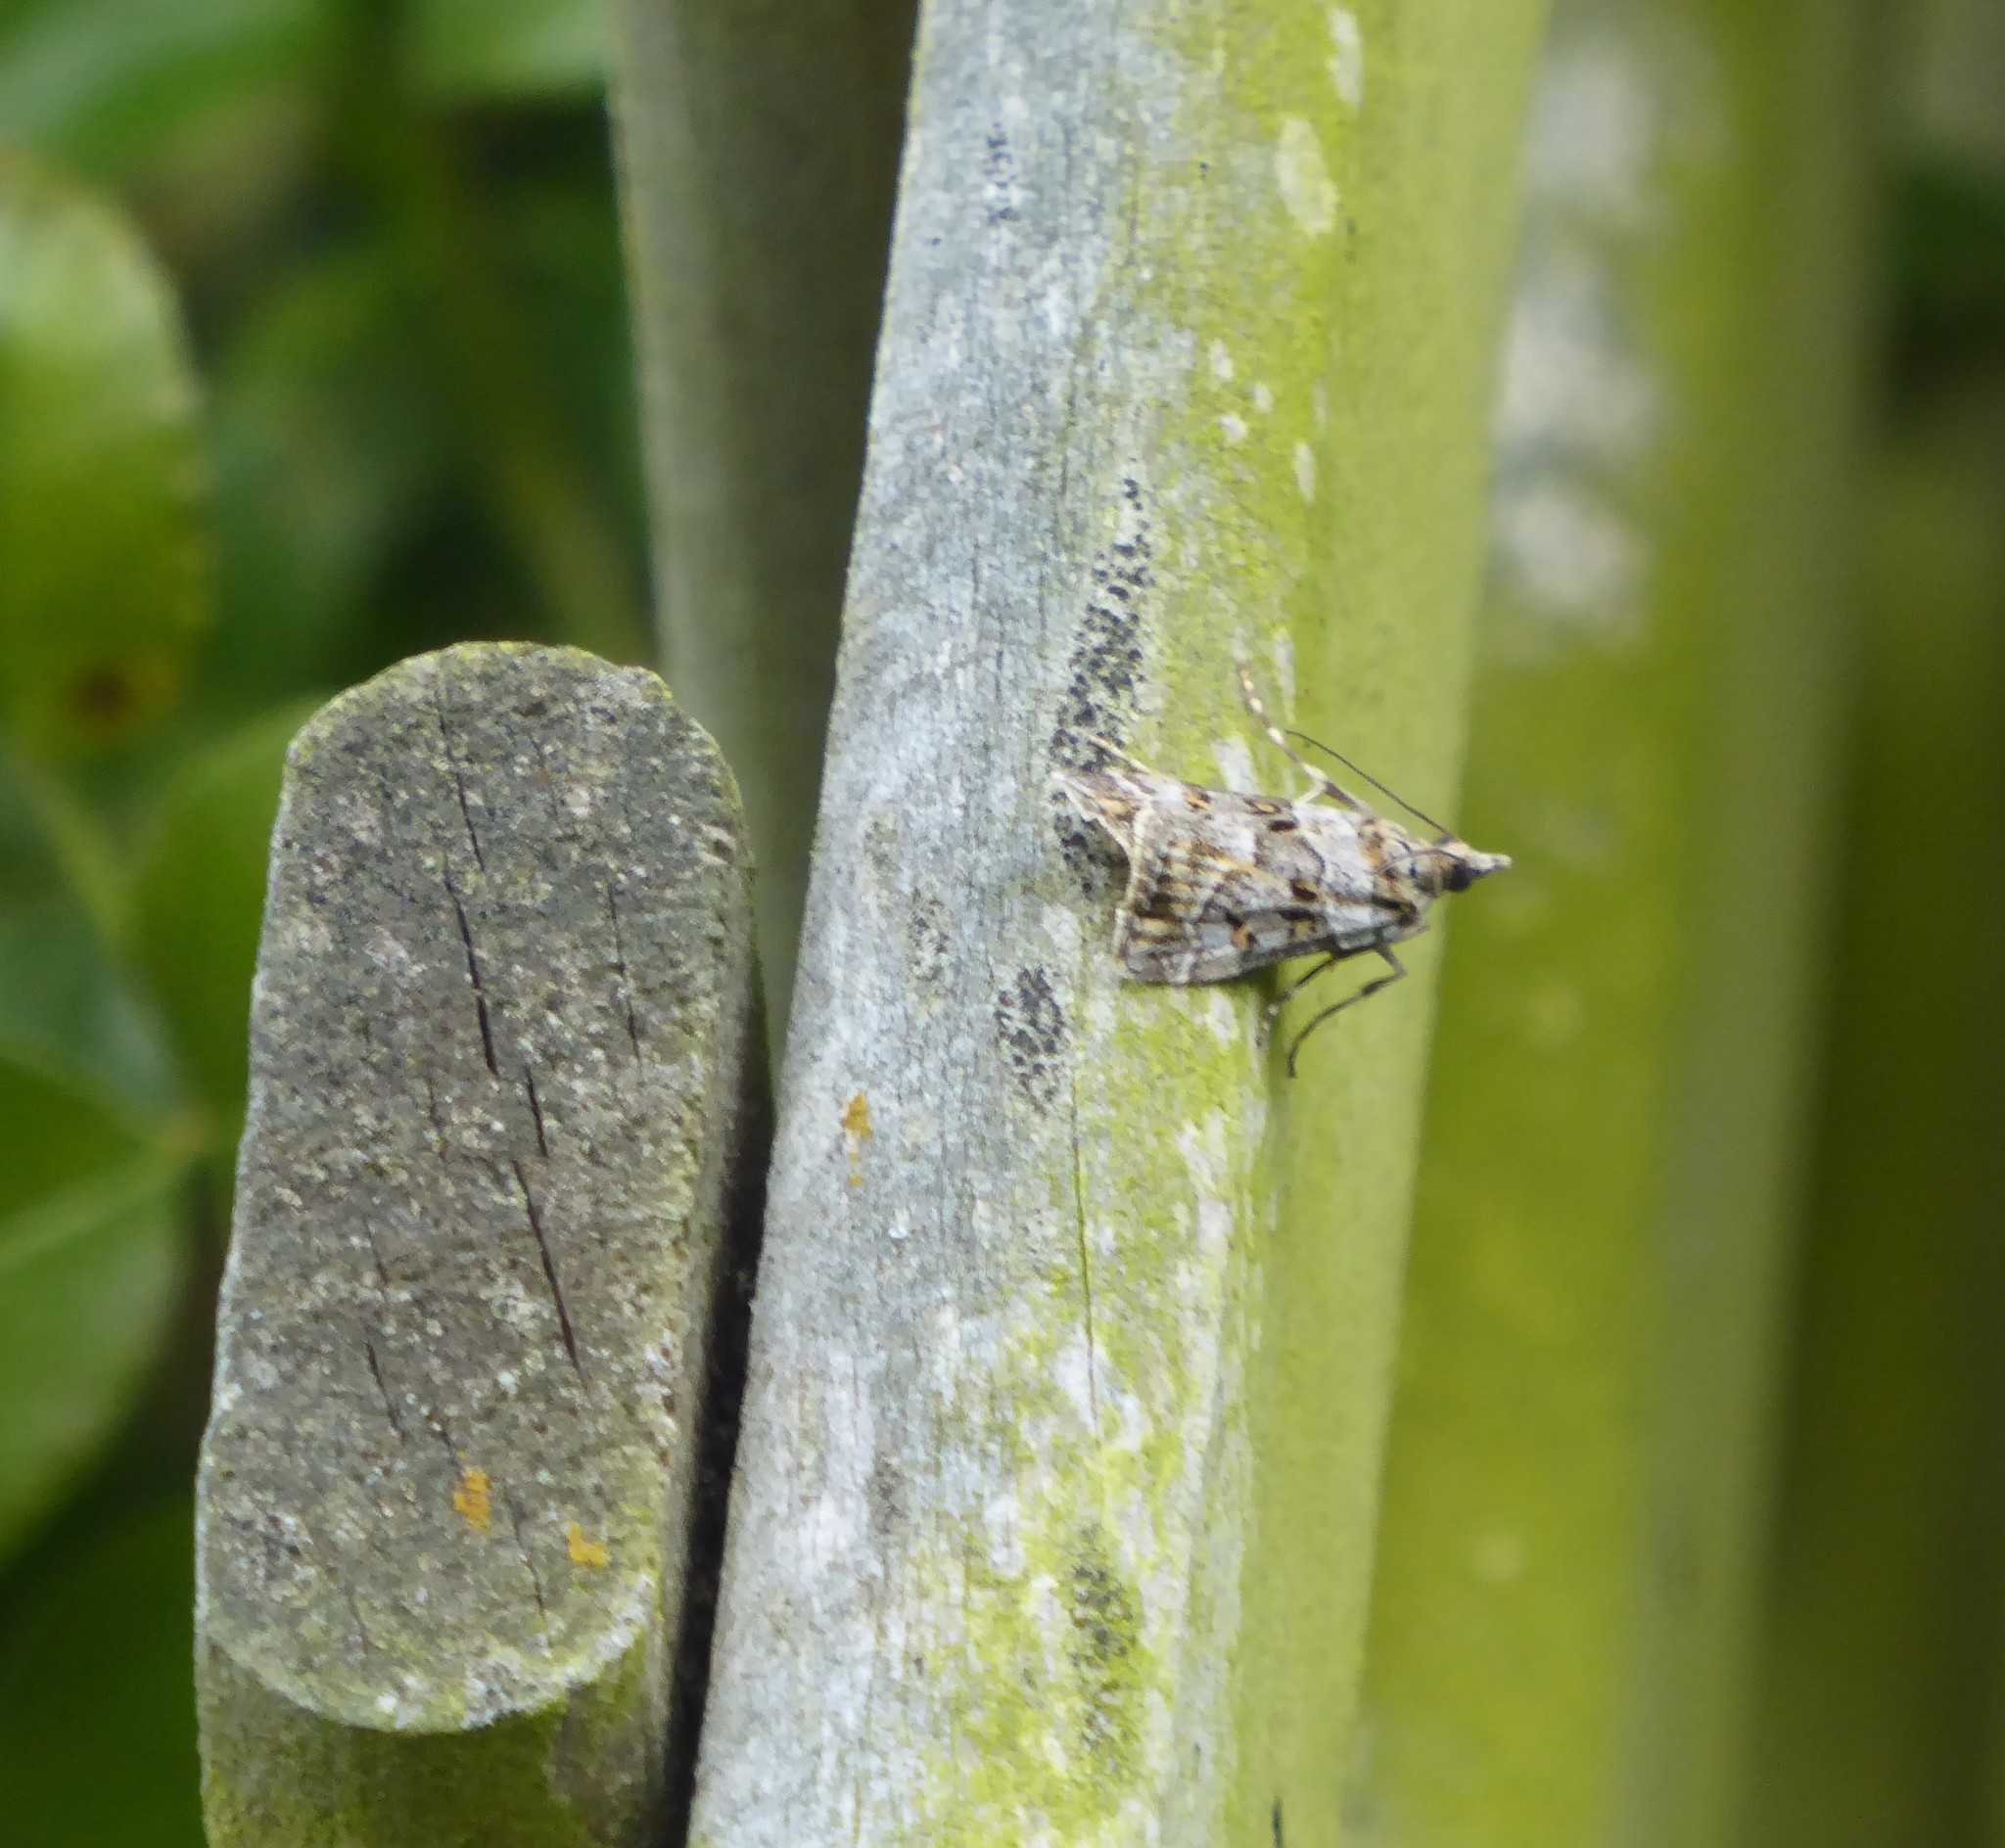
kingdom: Animalia
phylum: Arthropoda
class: Insecta
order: Lepidoptera
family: Crambidae
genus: Eudonia
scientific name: Eudonia diphtheralis
